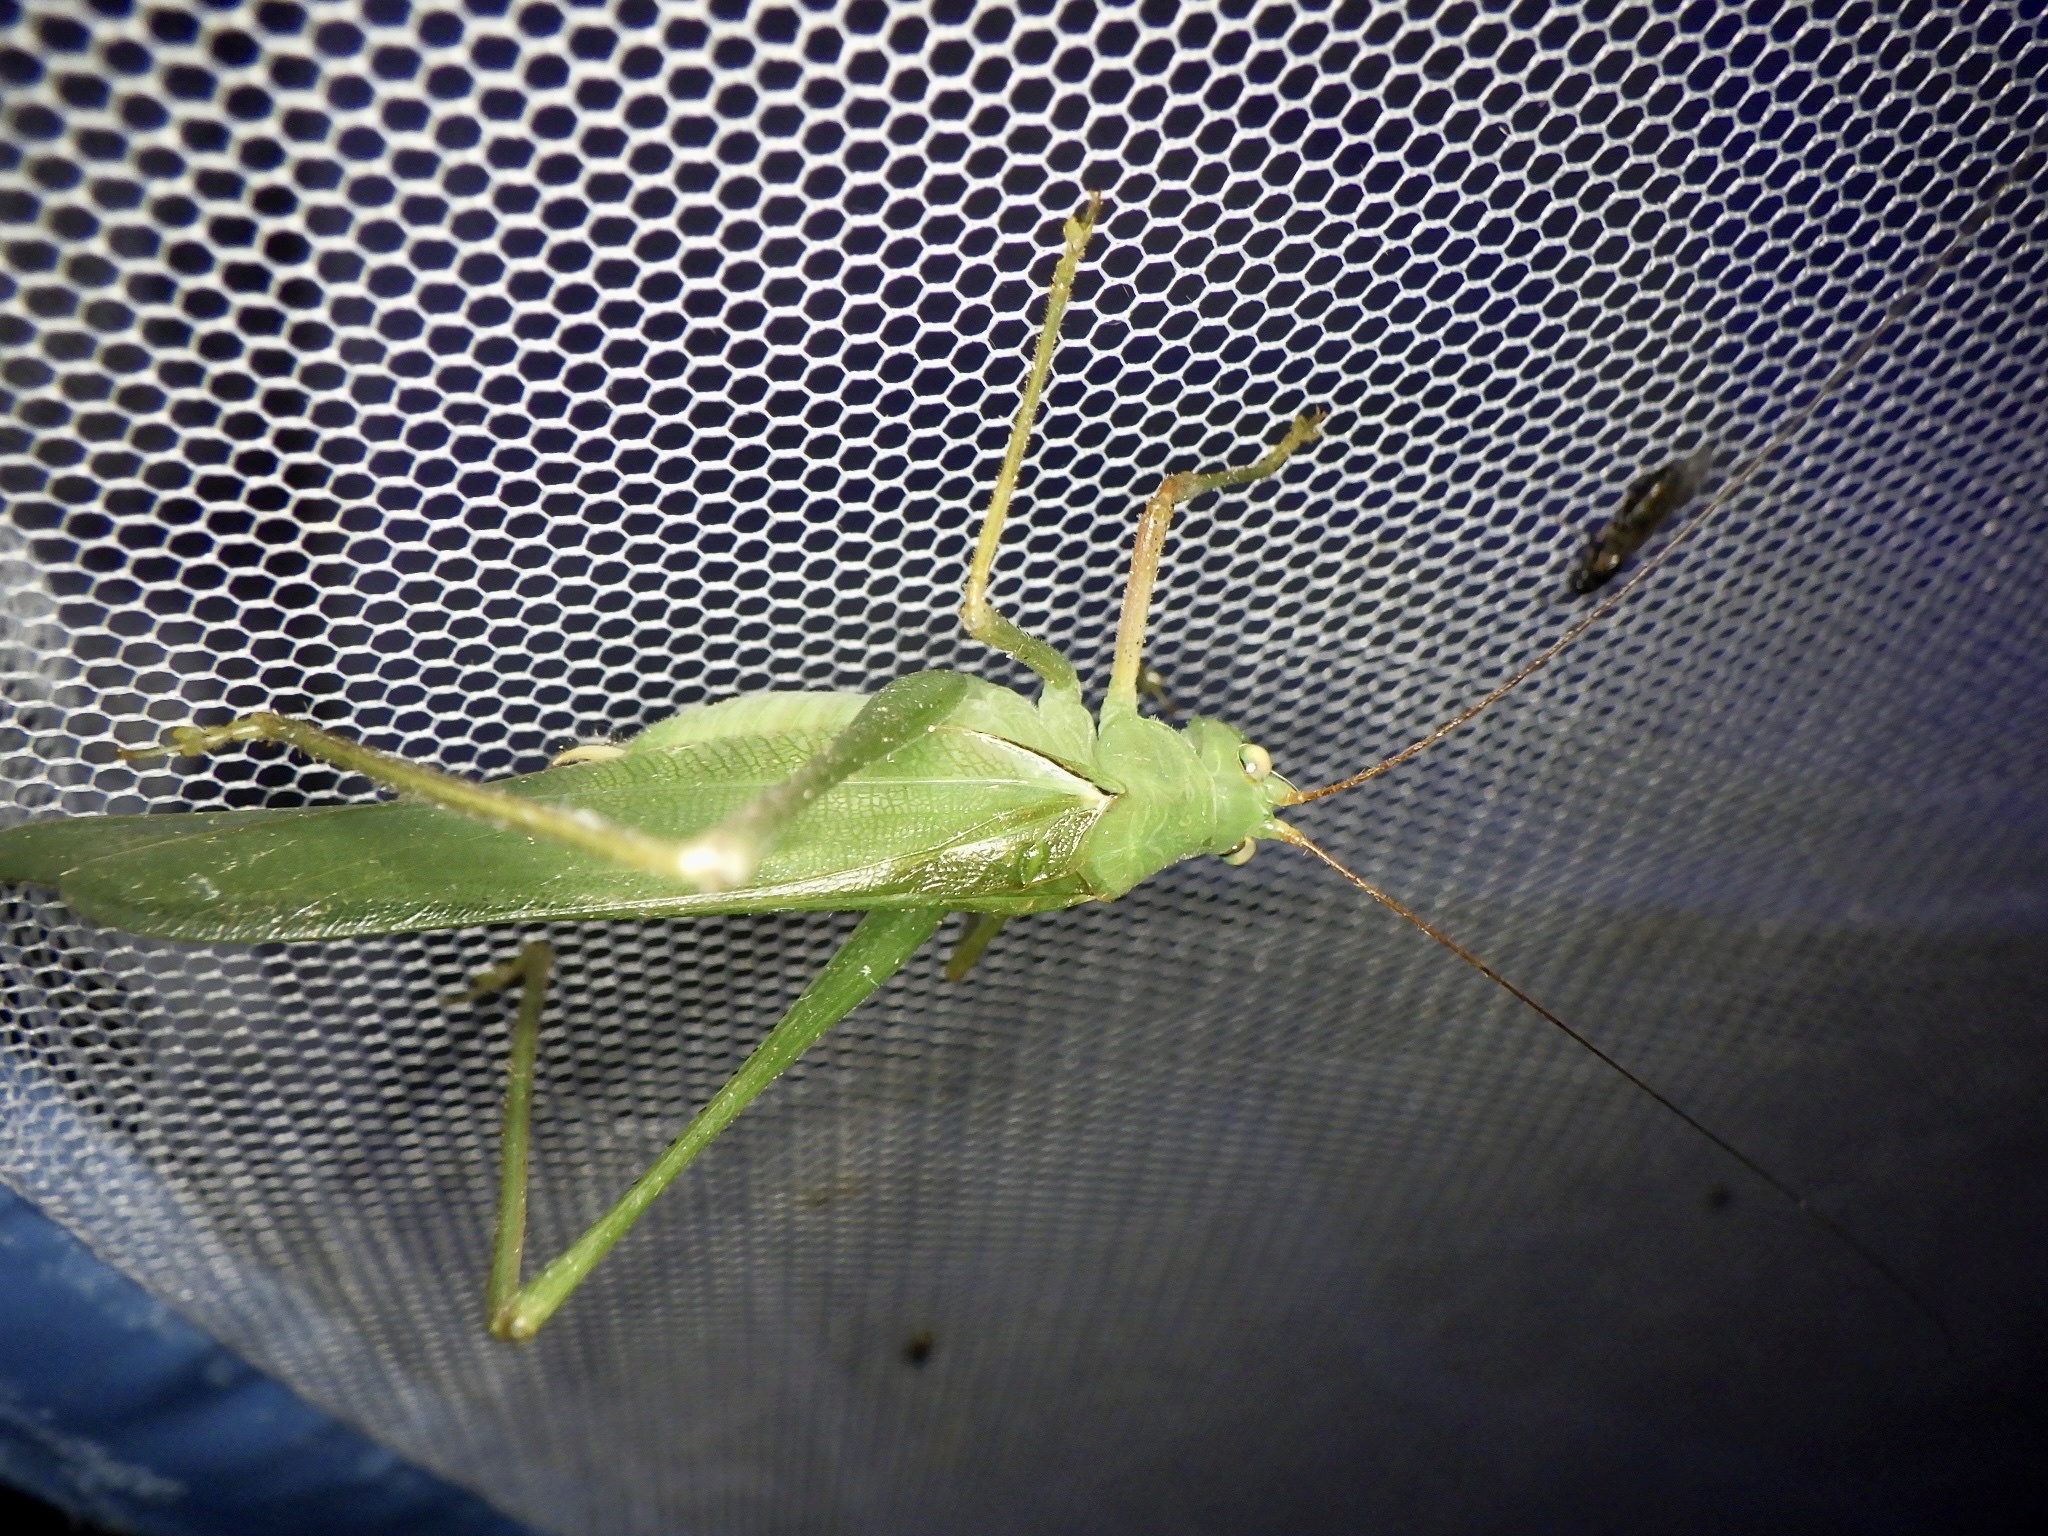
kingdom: Animalia
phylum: Arthropoda
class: Insecta
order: Orthoptera
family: Tettigoniidae
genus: Sinochlora
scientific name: Sinochlora longifissa
